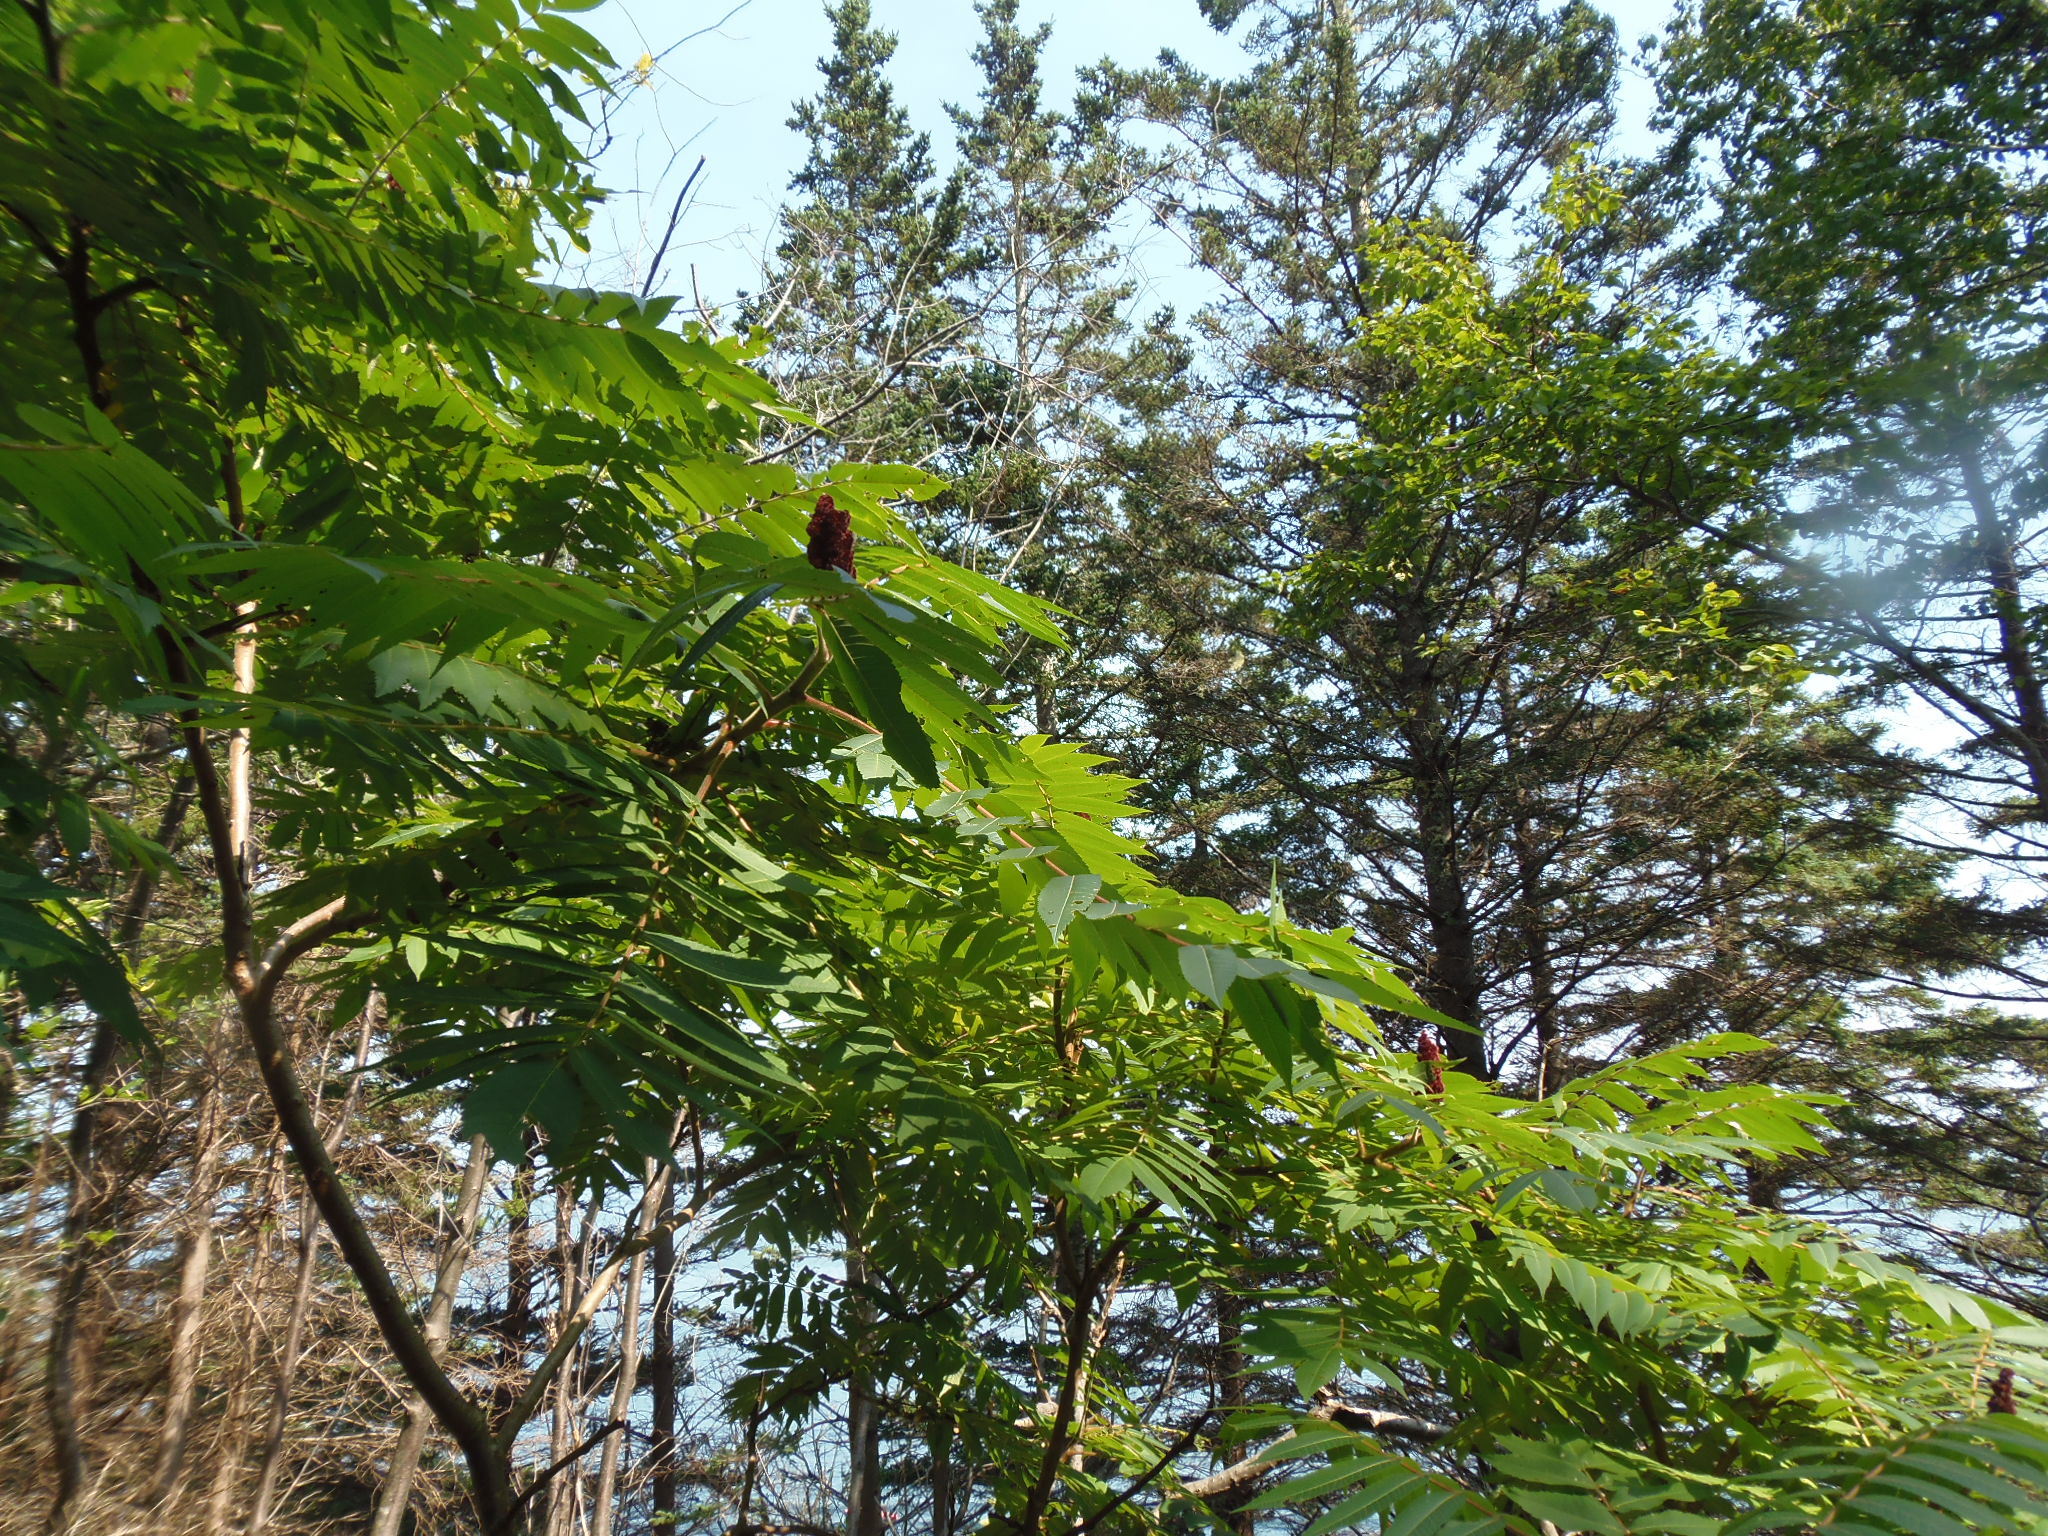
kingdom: Plantae
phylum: Tracheophyta
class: Magnoliopsida
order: Sapindales
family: Anacardiaceae
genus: Rhus
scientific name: Rhus typhina
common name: Staghorn sumac
